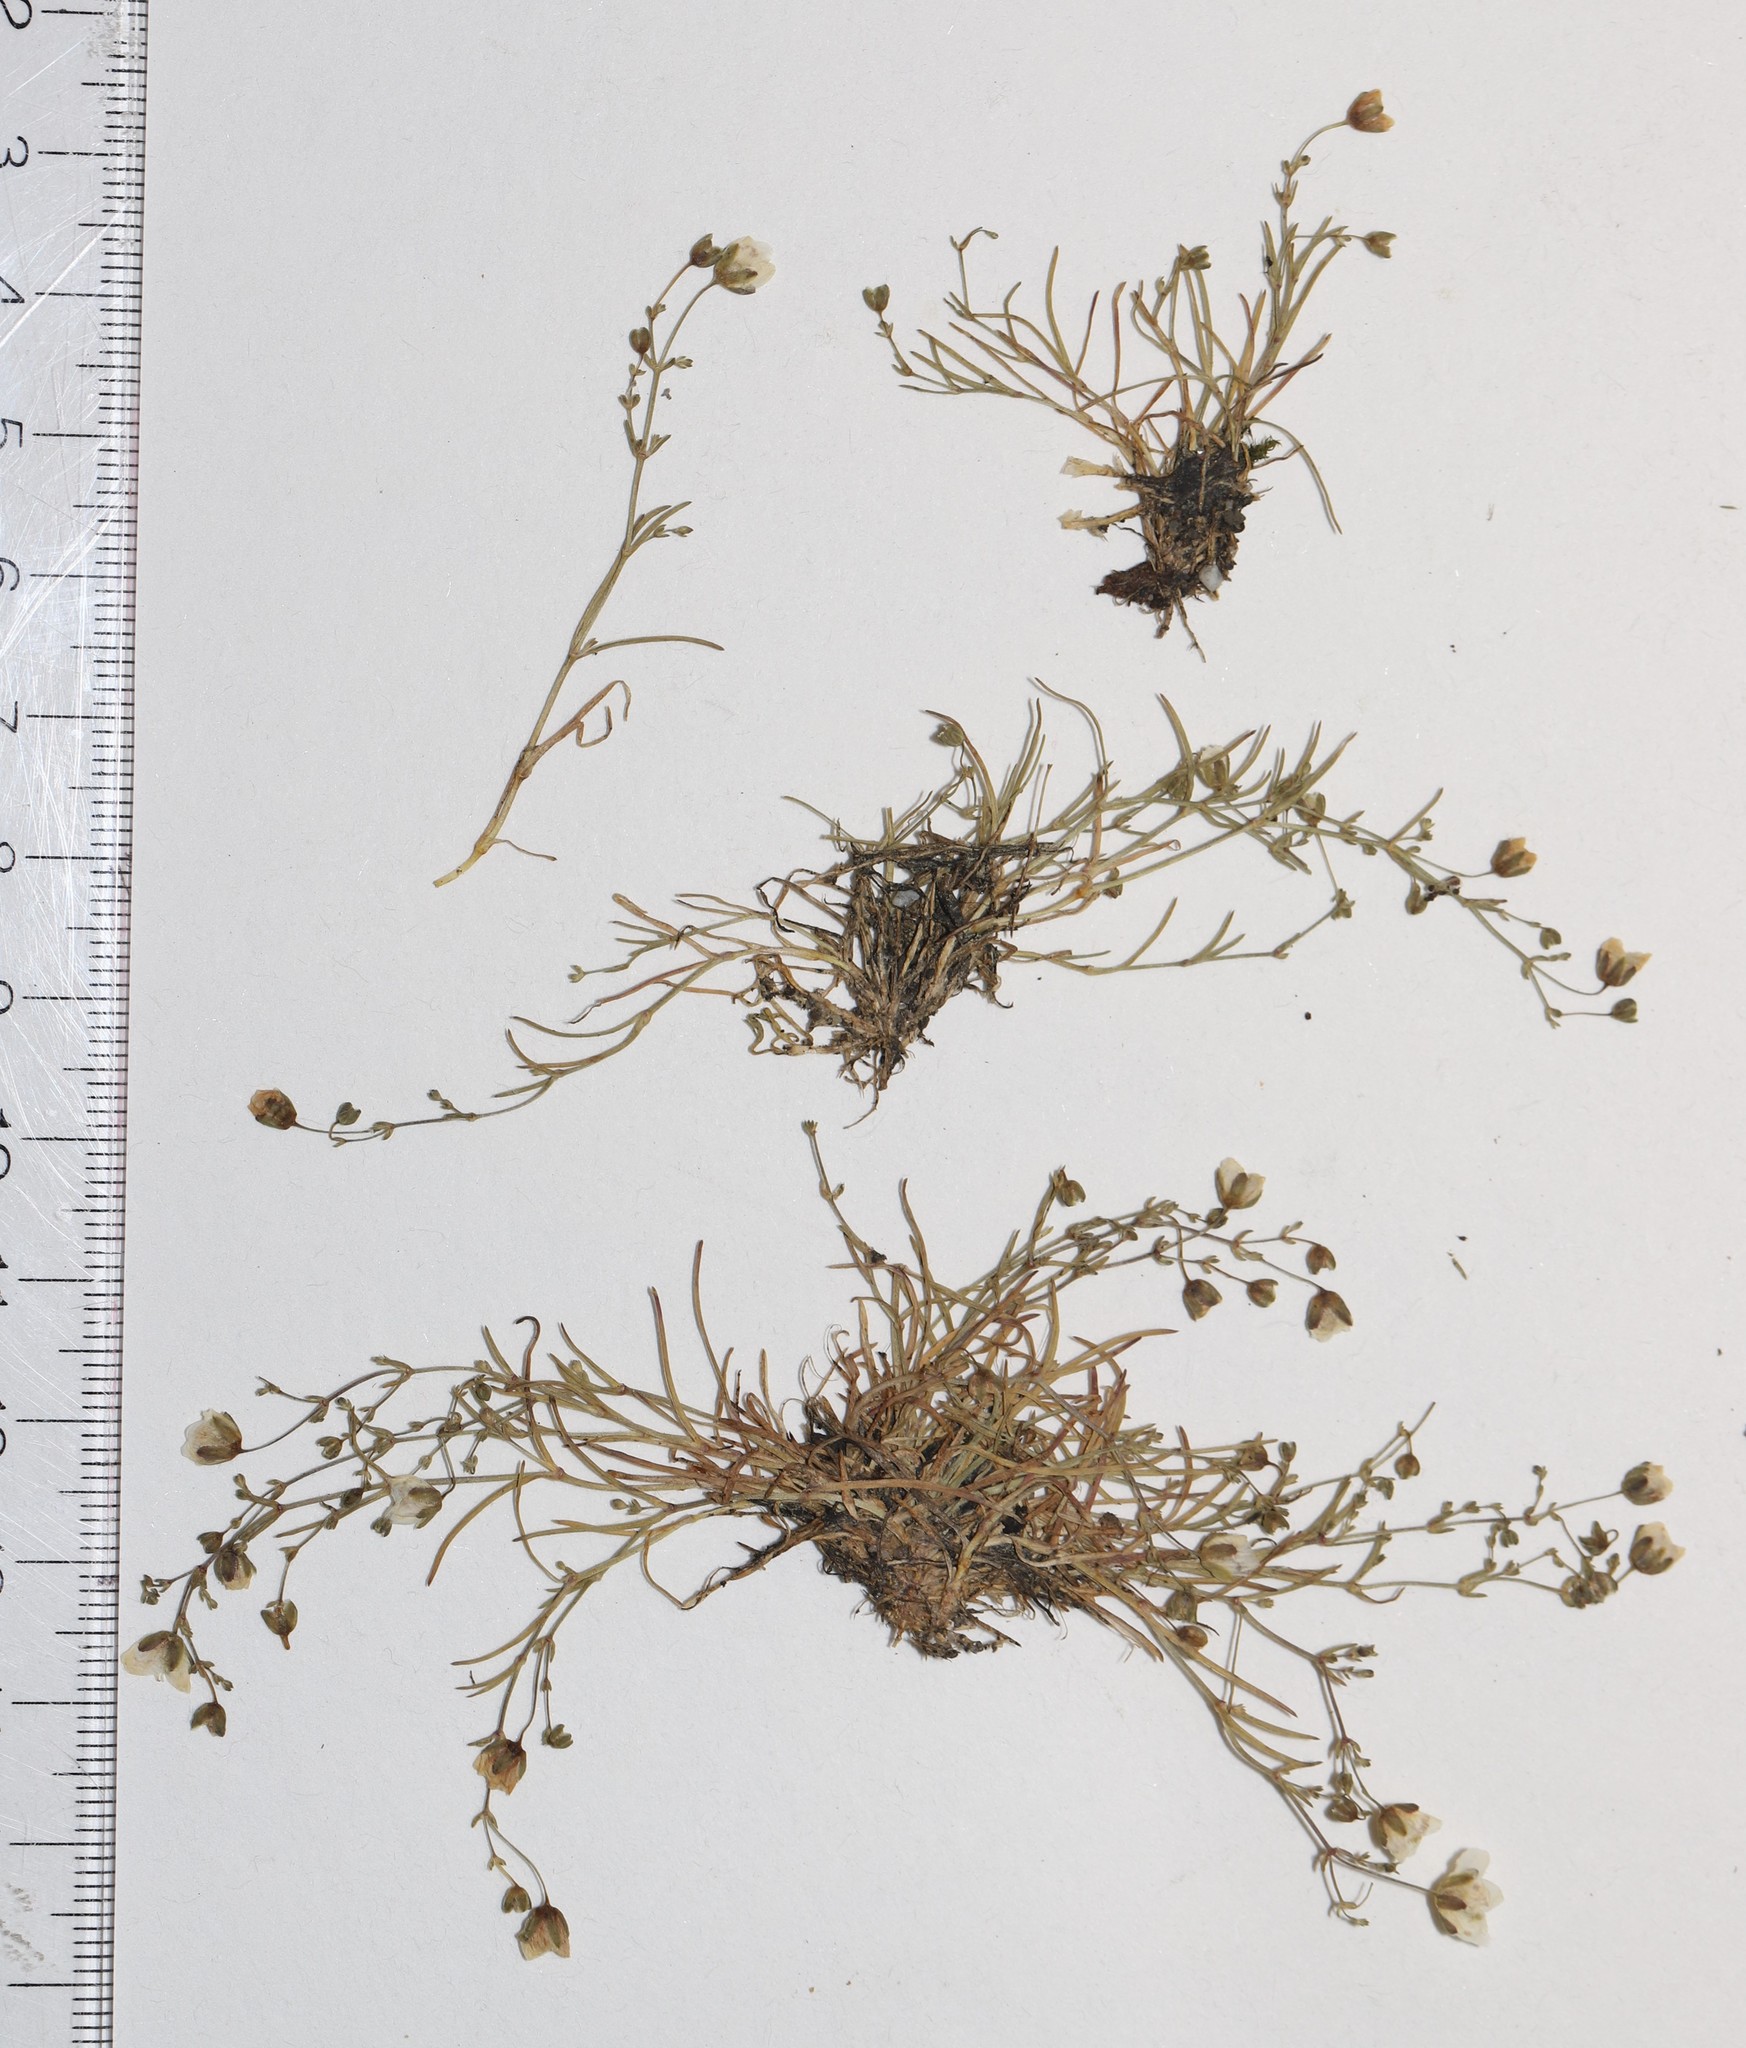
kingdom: Plantae
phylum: Tracheophyta
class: Magnoliopsida
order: Caryophyllales
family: Caryophyllaceae
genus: Sagina
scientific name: Sagina nodosa
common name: Knotted pearlwort
